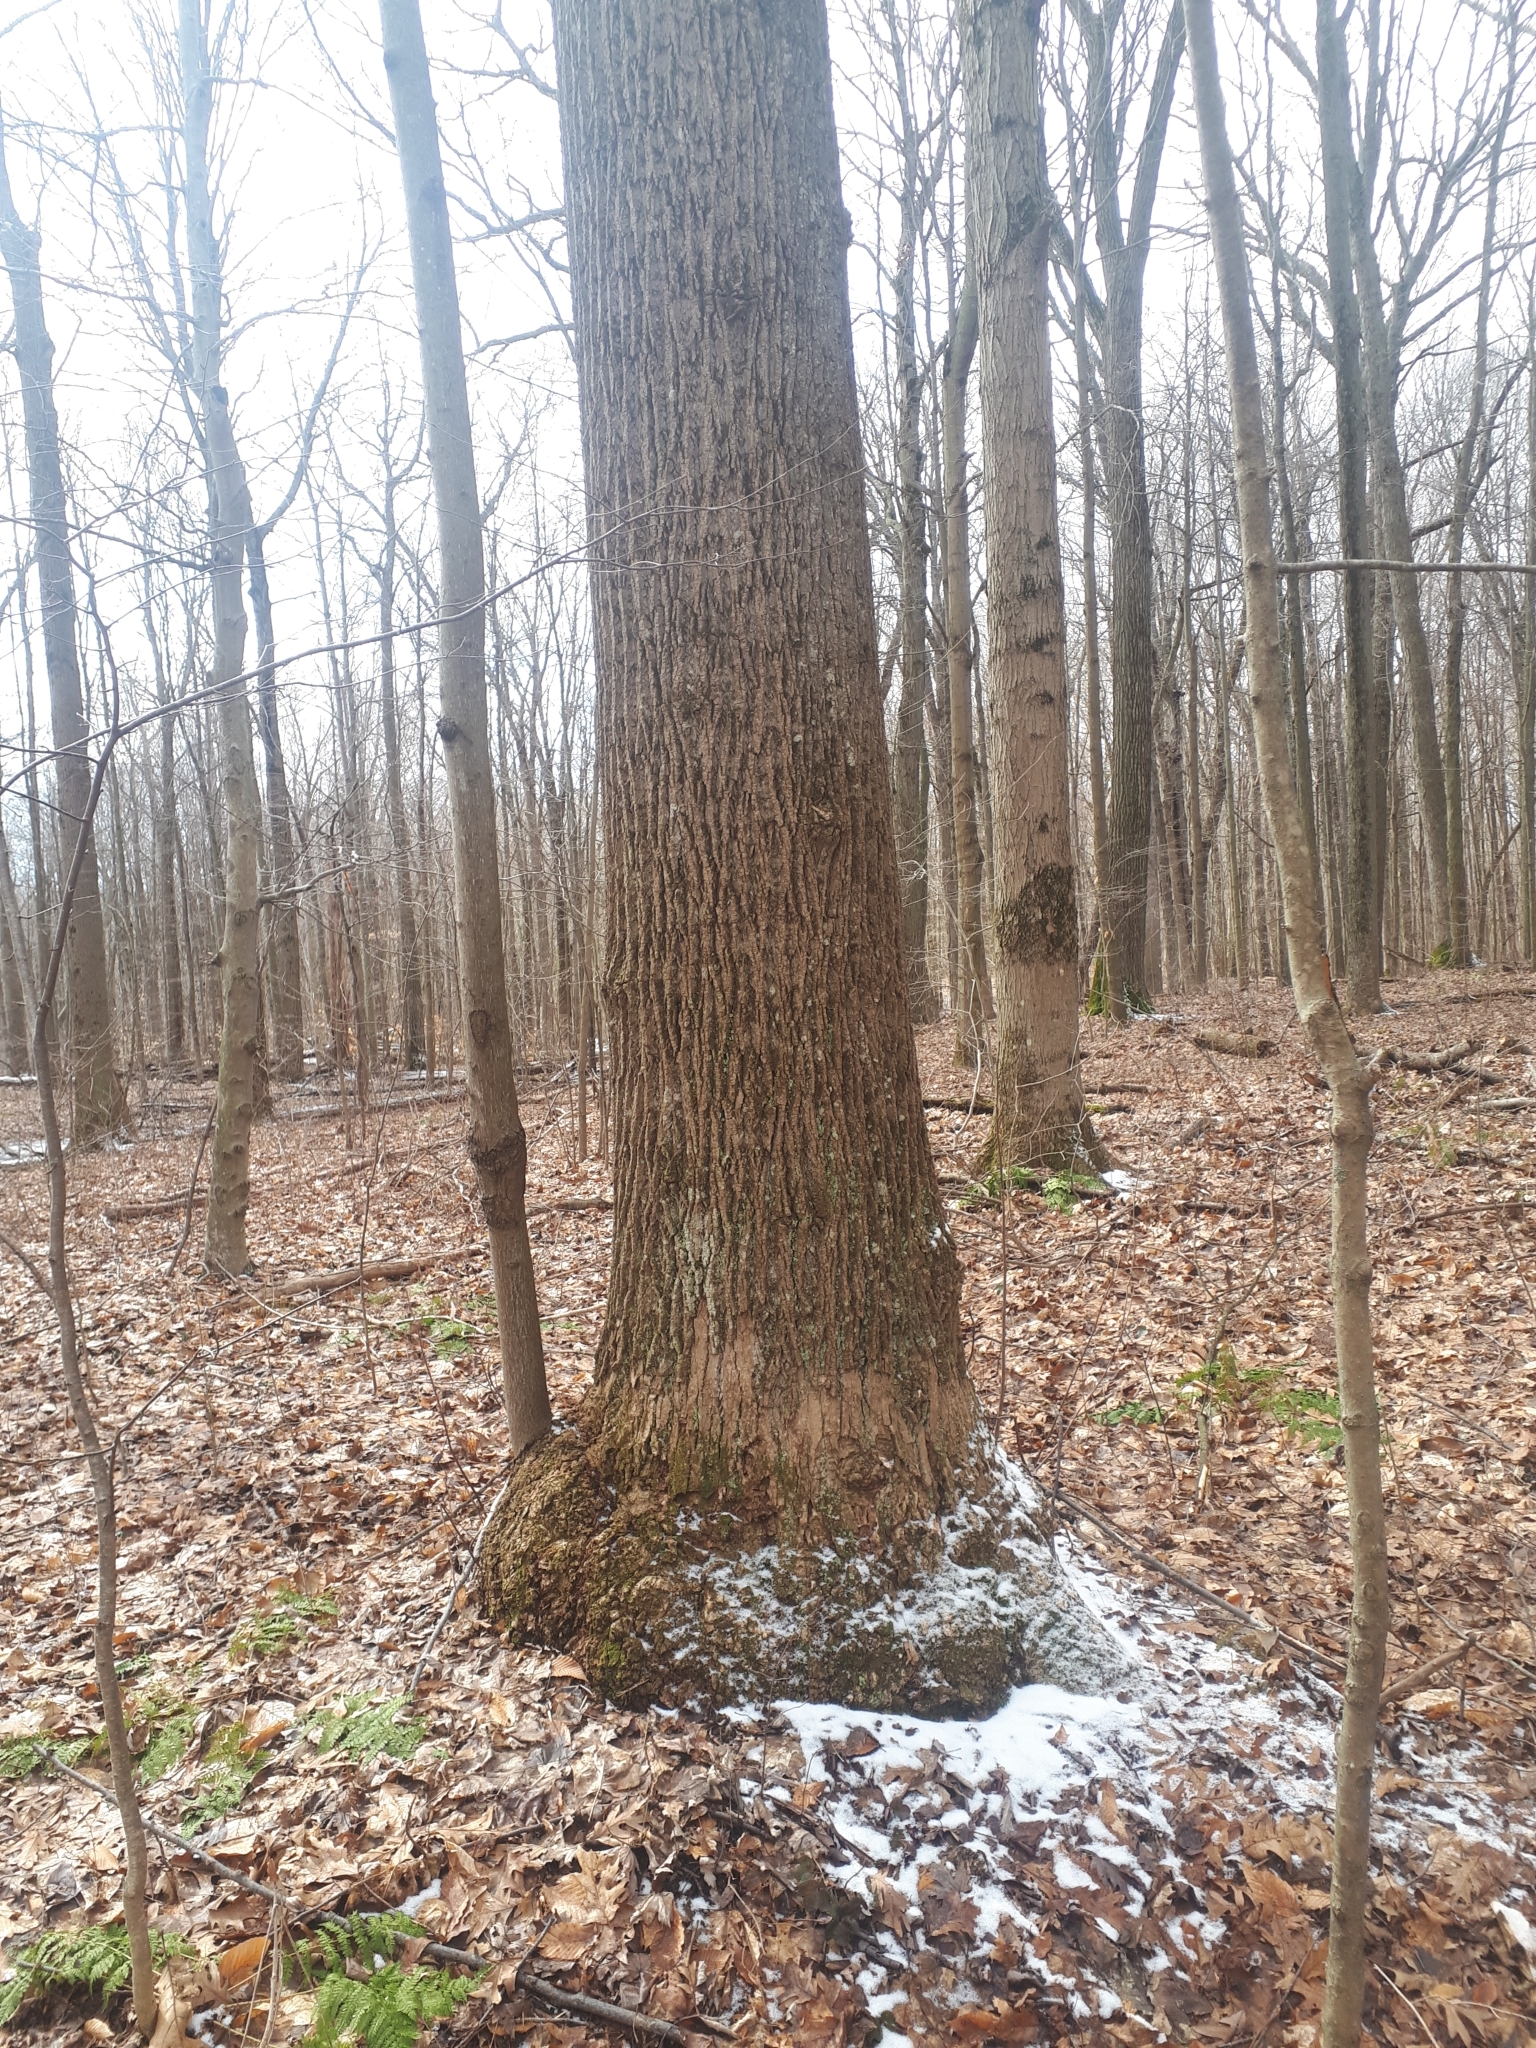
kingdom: Plantae
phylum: Tracheophyta
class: Magnoliopsida
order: Magnoliales
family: Magnoliaceae
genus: Liriodendron
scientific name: Liriodendron tulipifera
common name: Tulip tree
